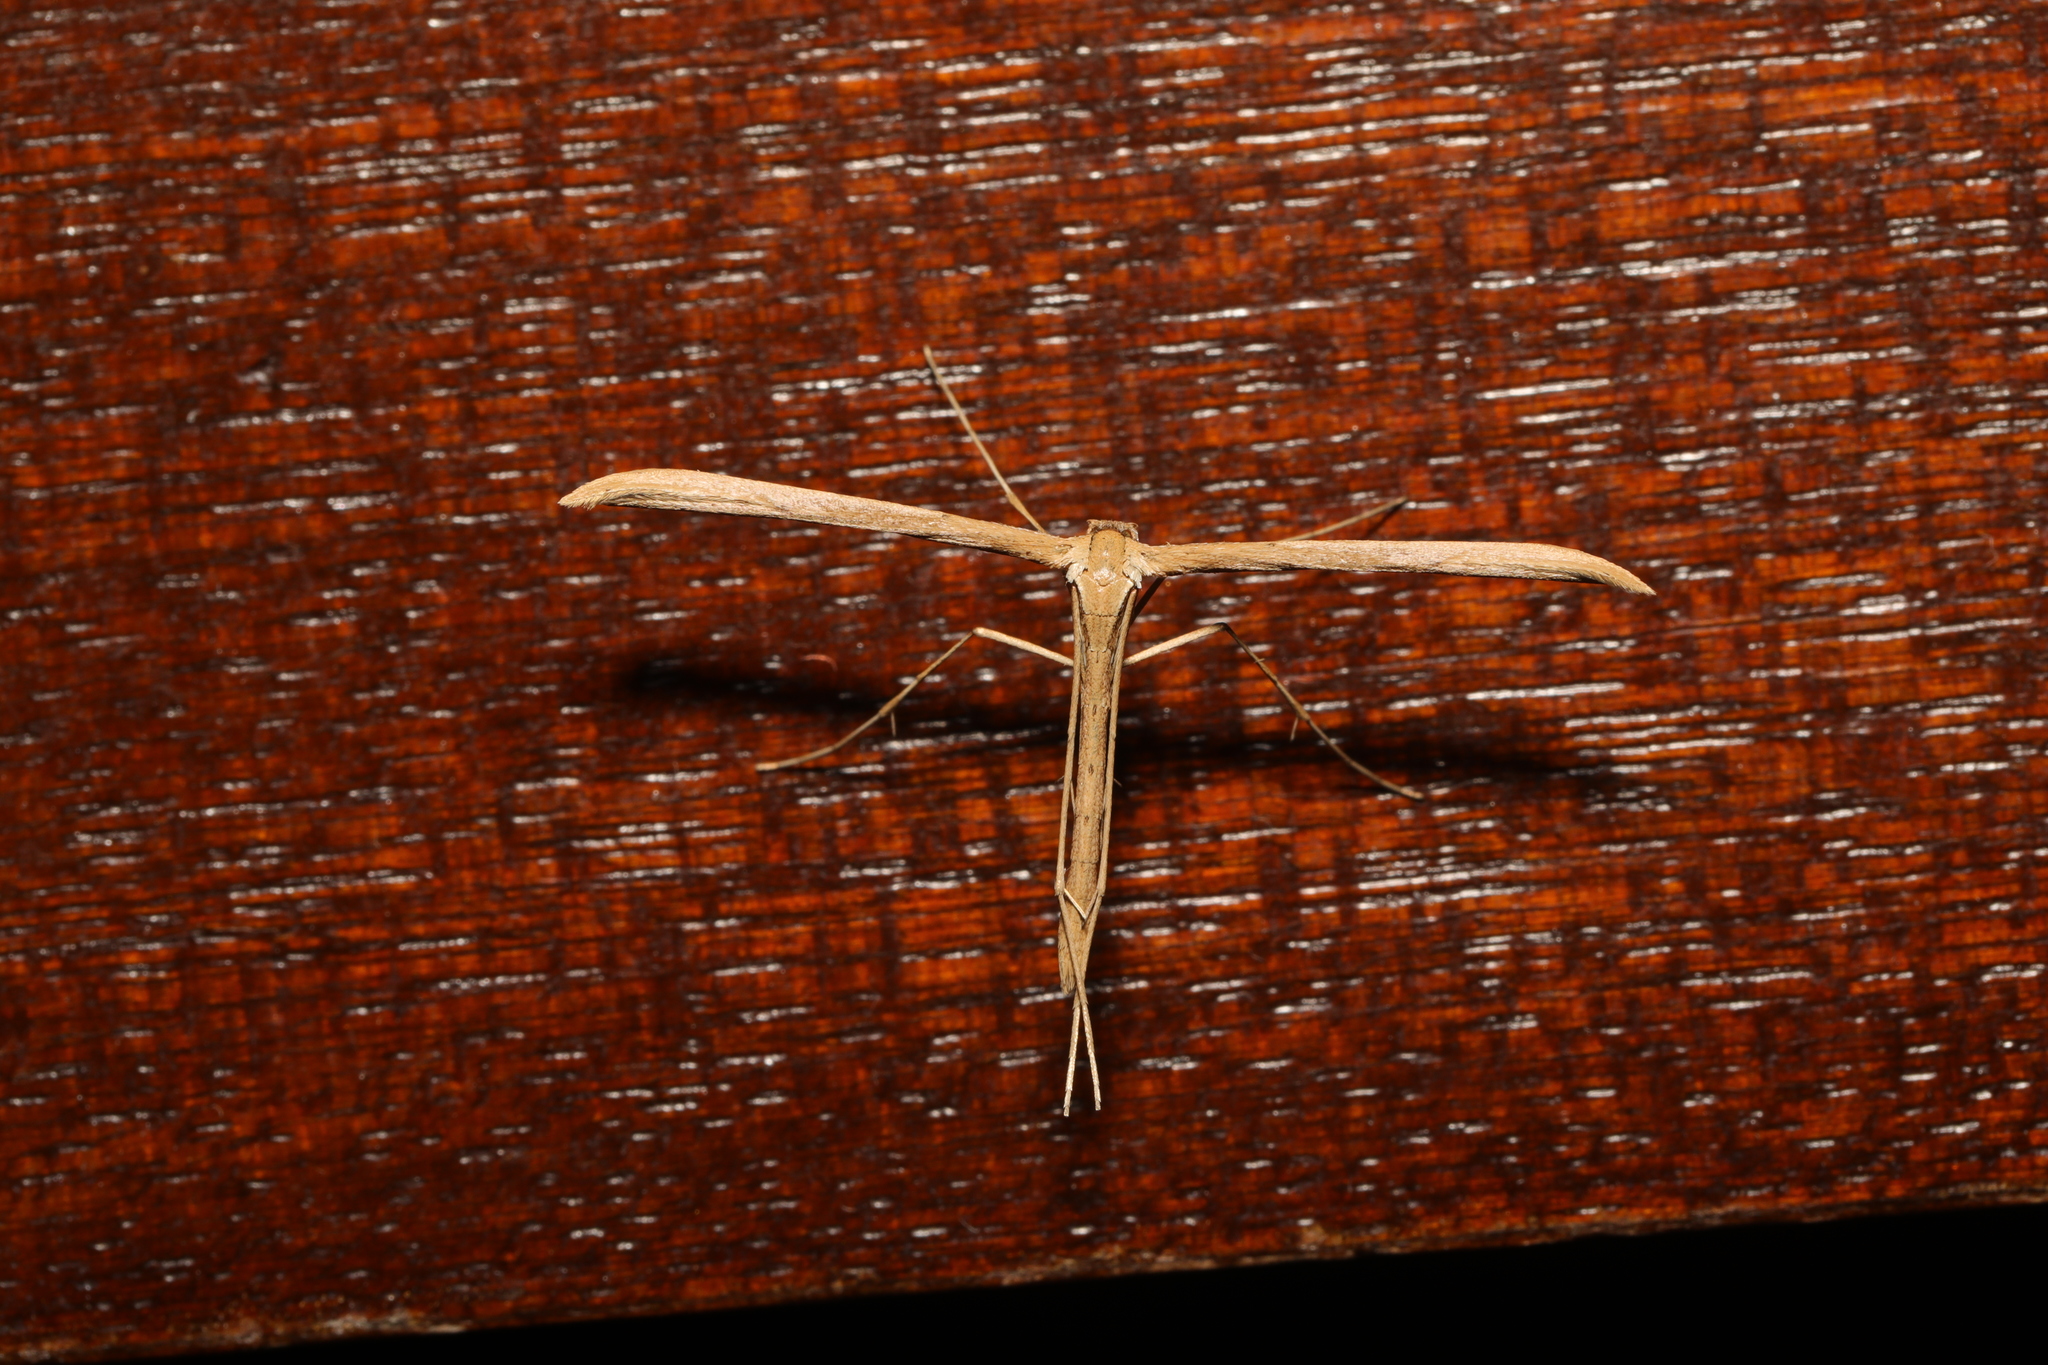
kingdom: Animalia
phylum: Arthropoda
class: Insecta
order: Lepidoptera
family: Pterophoridae
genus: Emmelina
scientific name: Emmelina monodactyla
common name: Common plume
